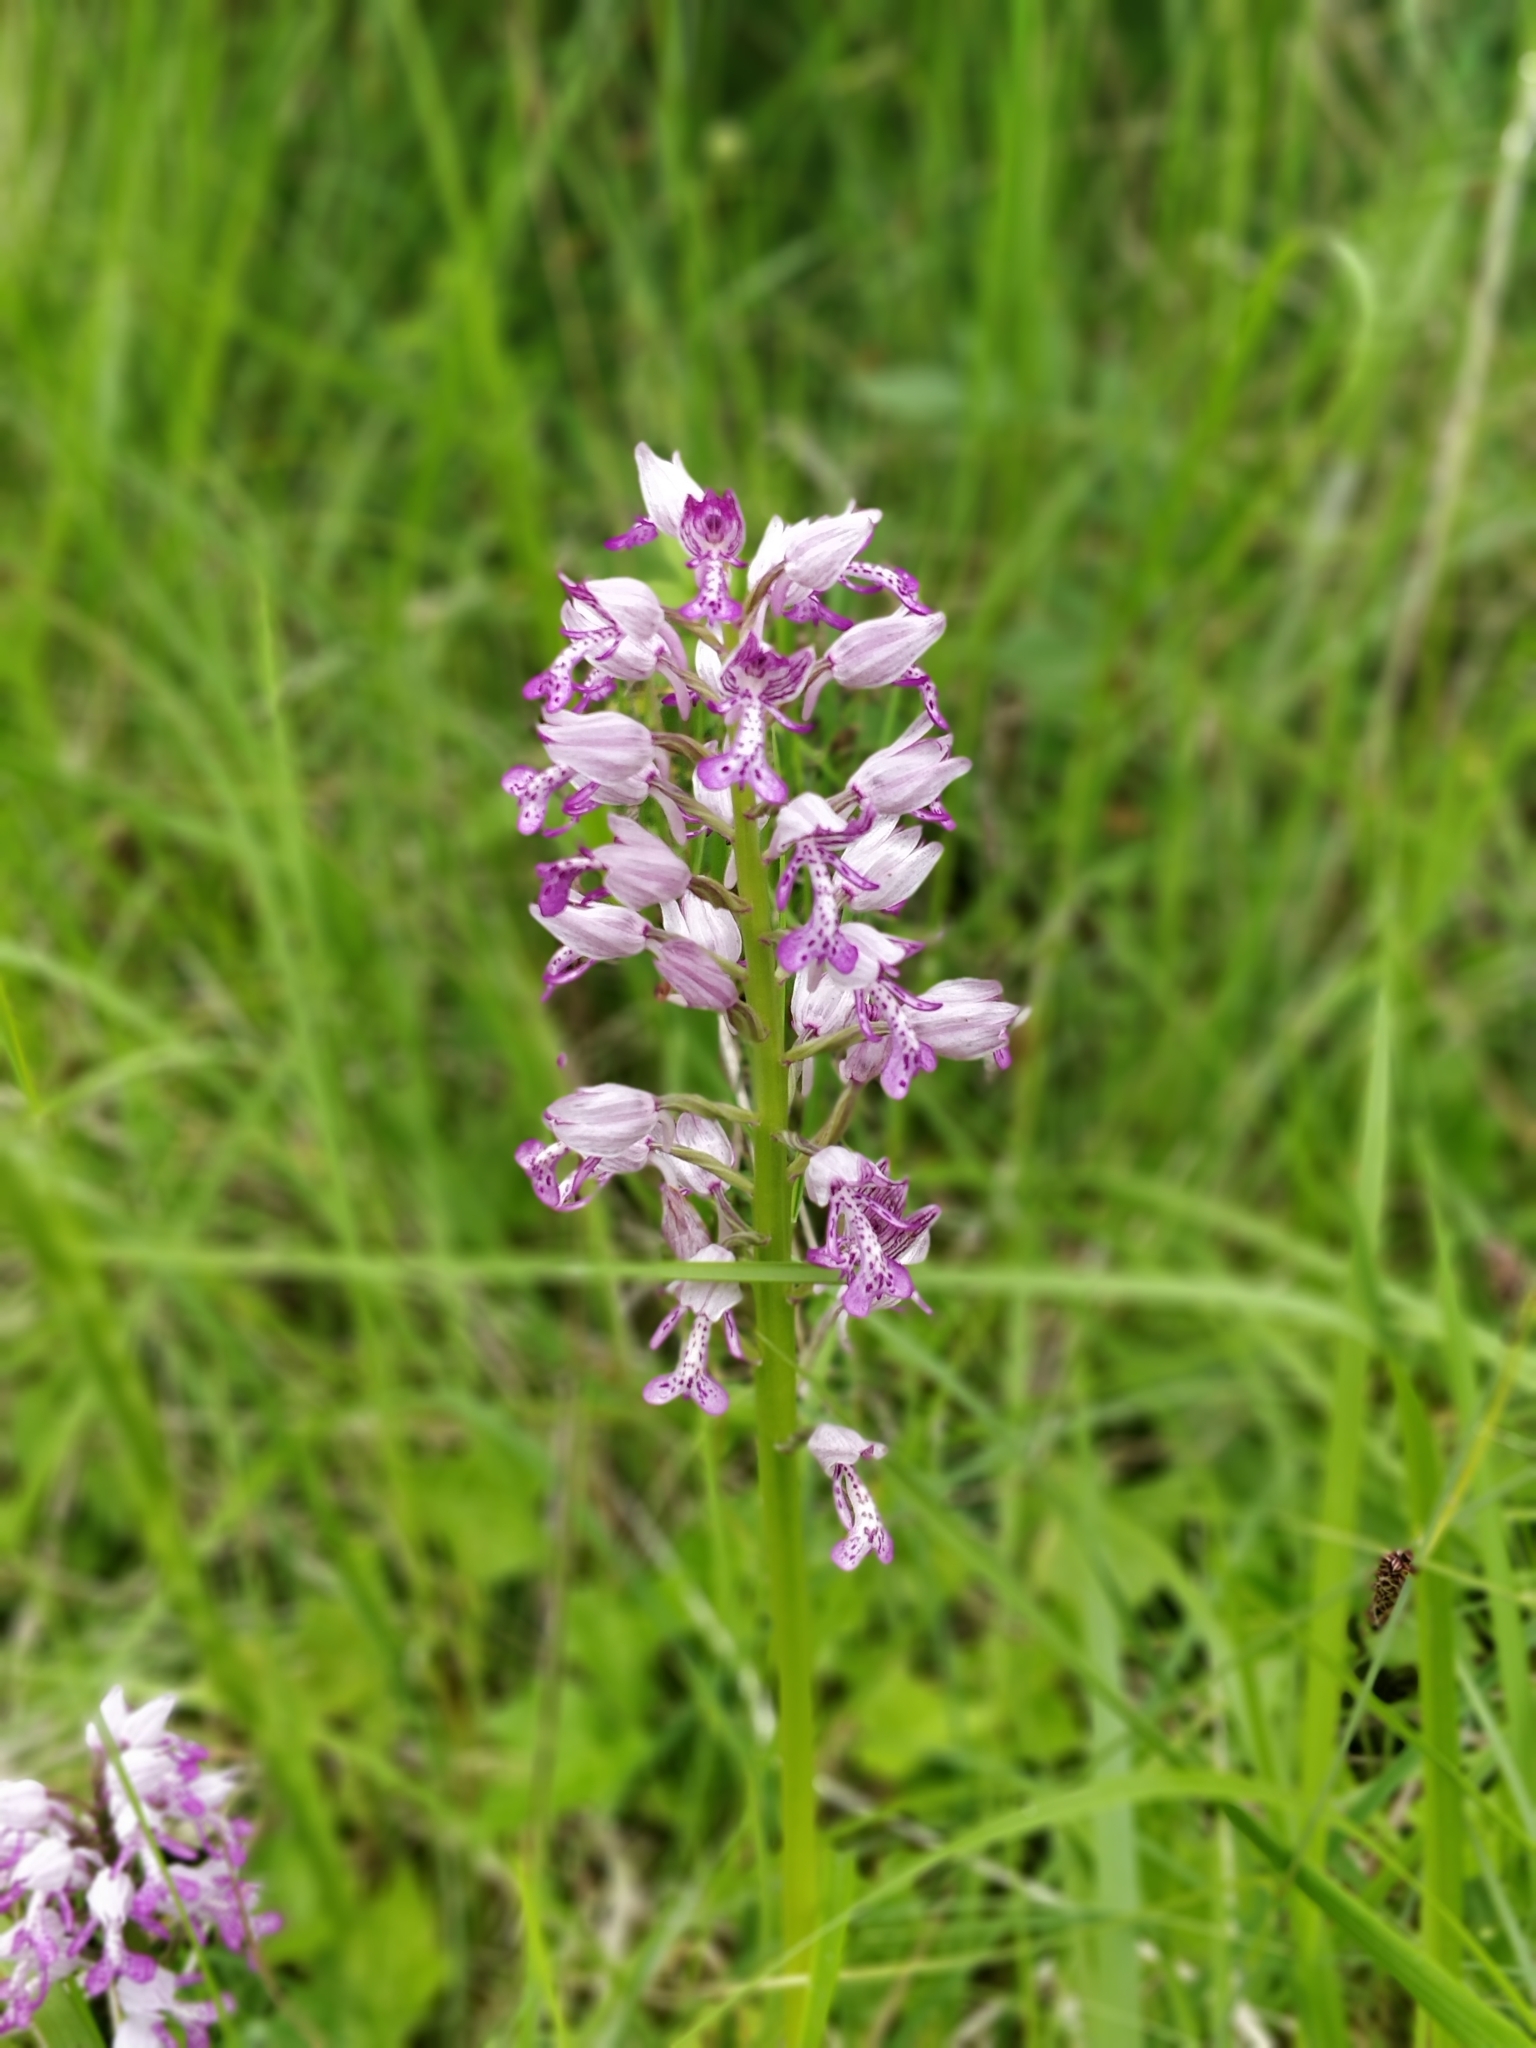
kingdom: Plantae
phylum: Tracheophyta
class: Liliopsida
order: Asparagales
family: Orchidaceae
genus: Orchis
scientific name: Orchis militaris
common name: Military orchid
